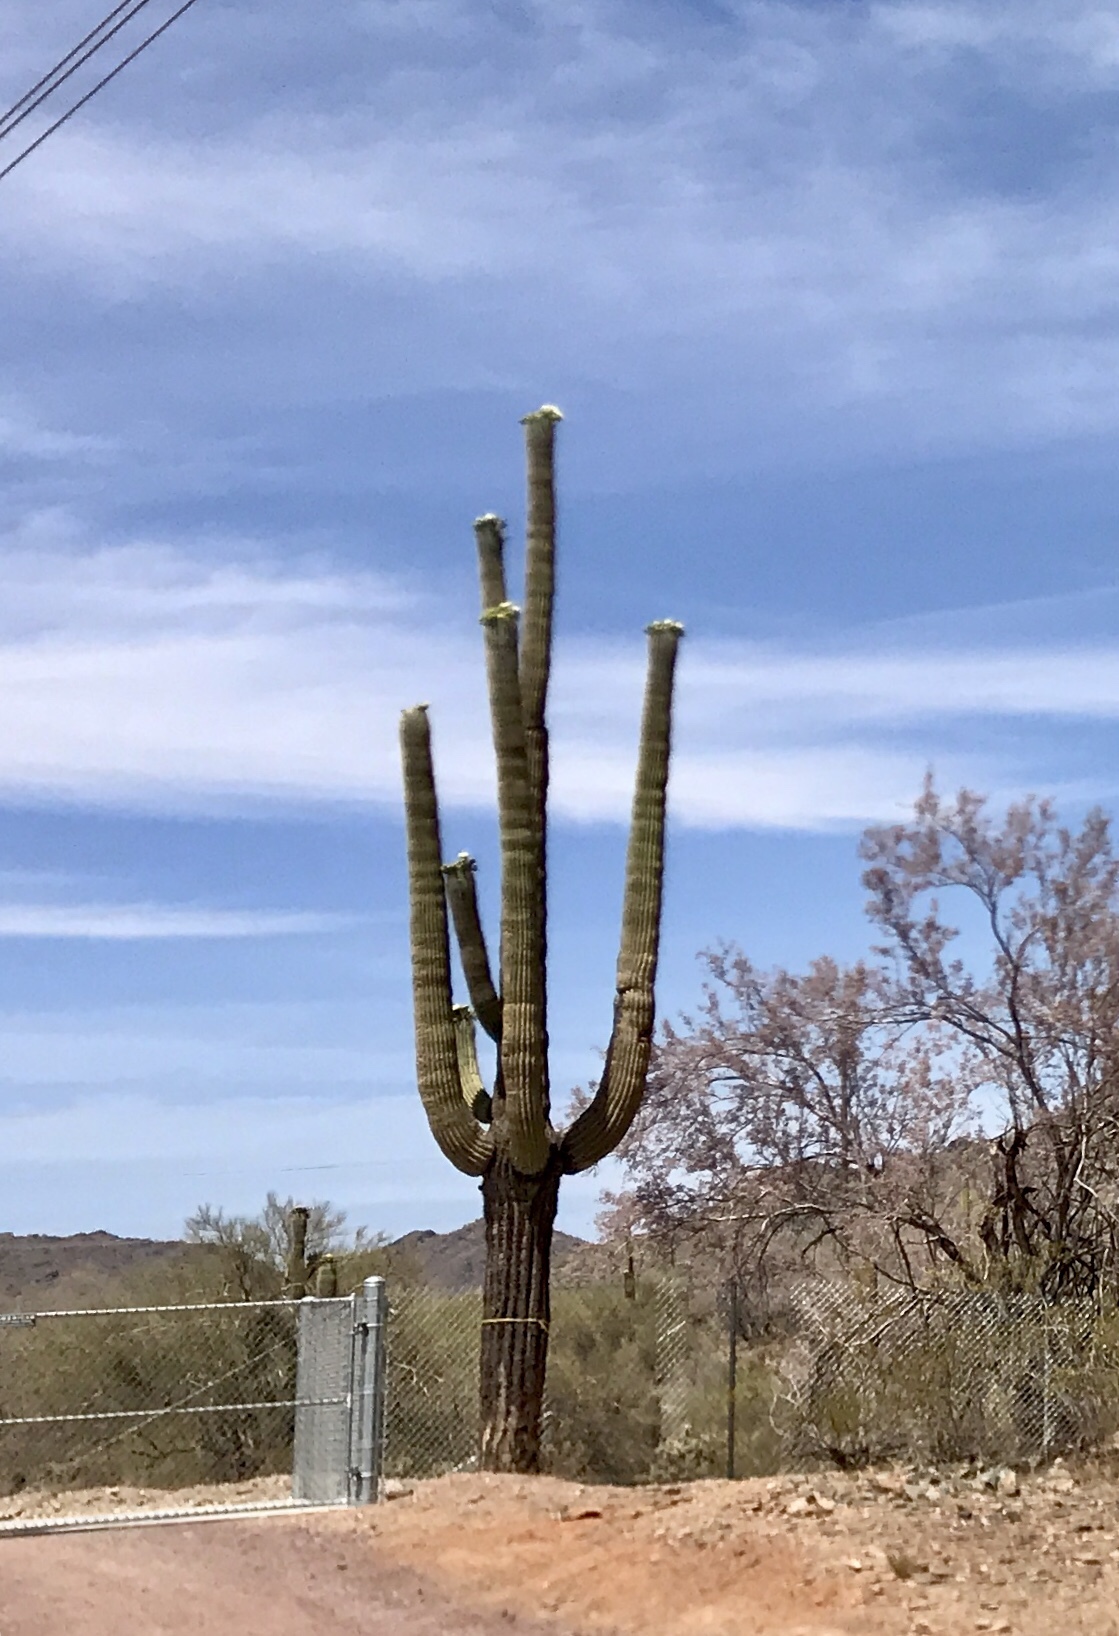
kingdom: Plantae
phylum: Tracheophyta
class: Magnoliopsida
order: Caryophyllales
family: Cactaceae
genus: Carnegiea
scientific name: Carnegiea gigantea
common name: Saguaro
